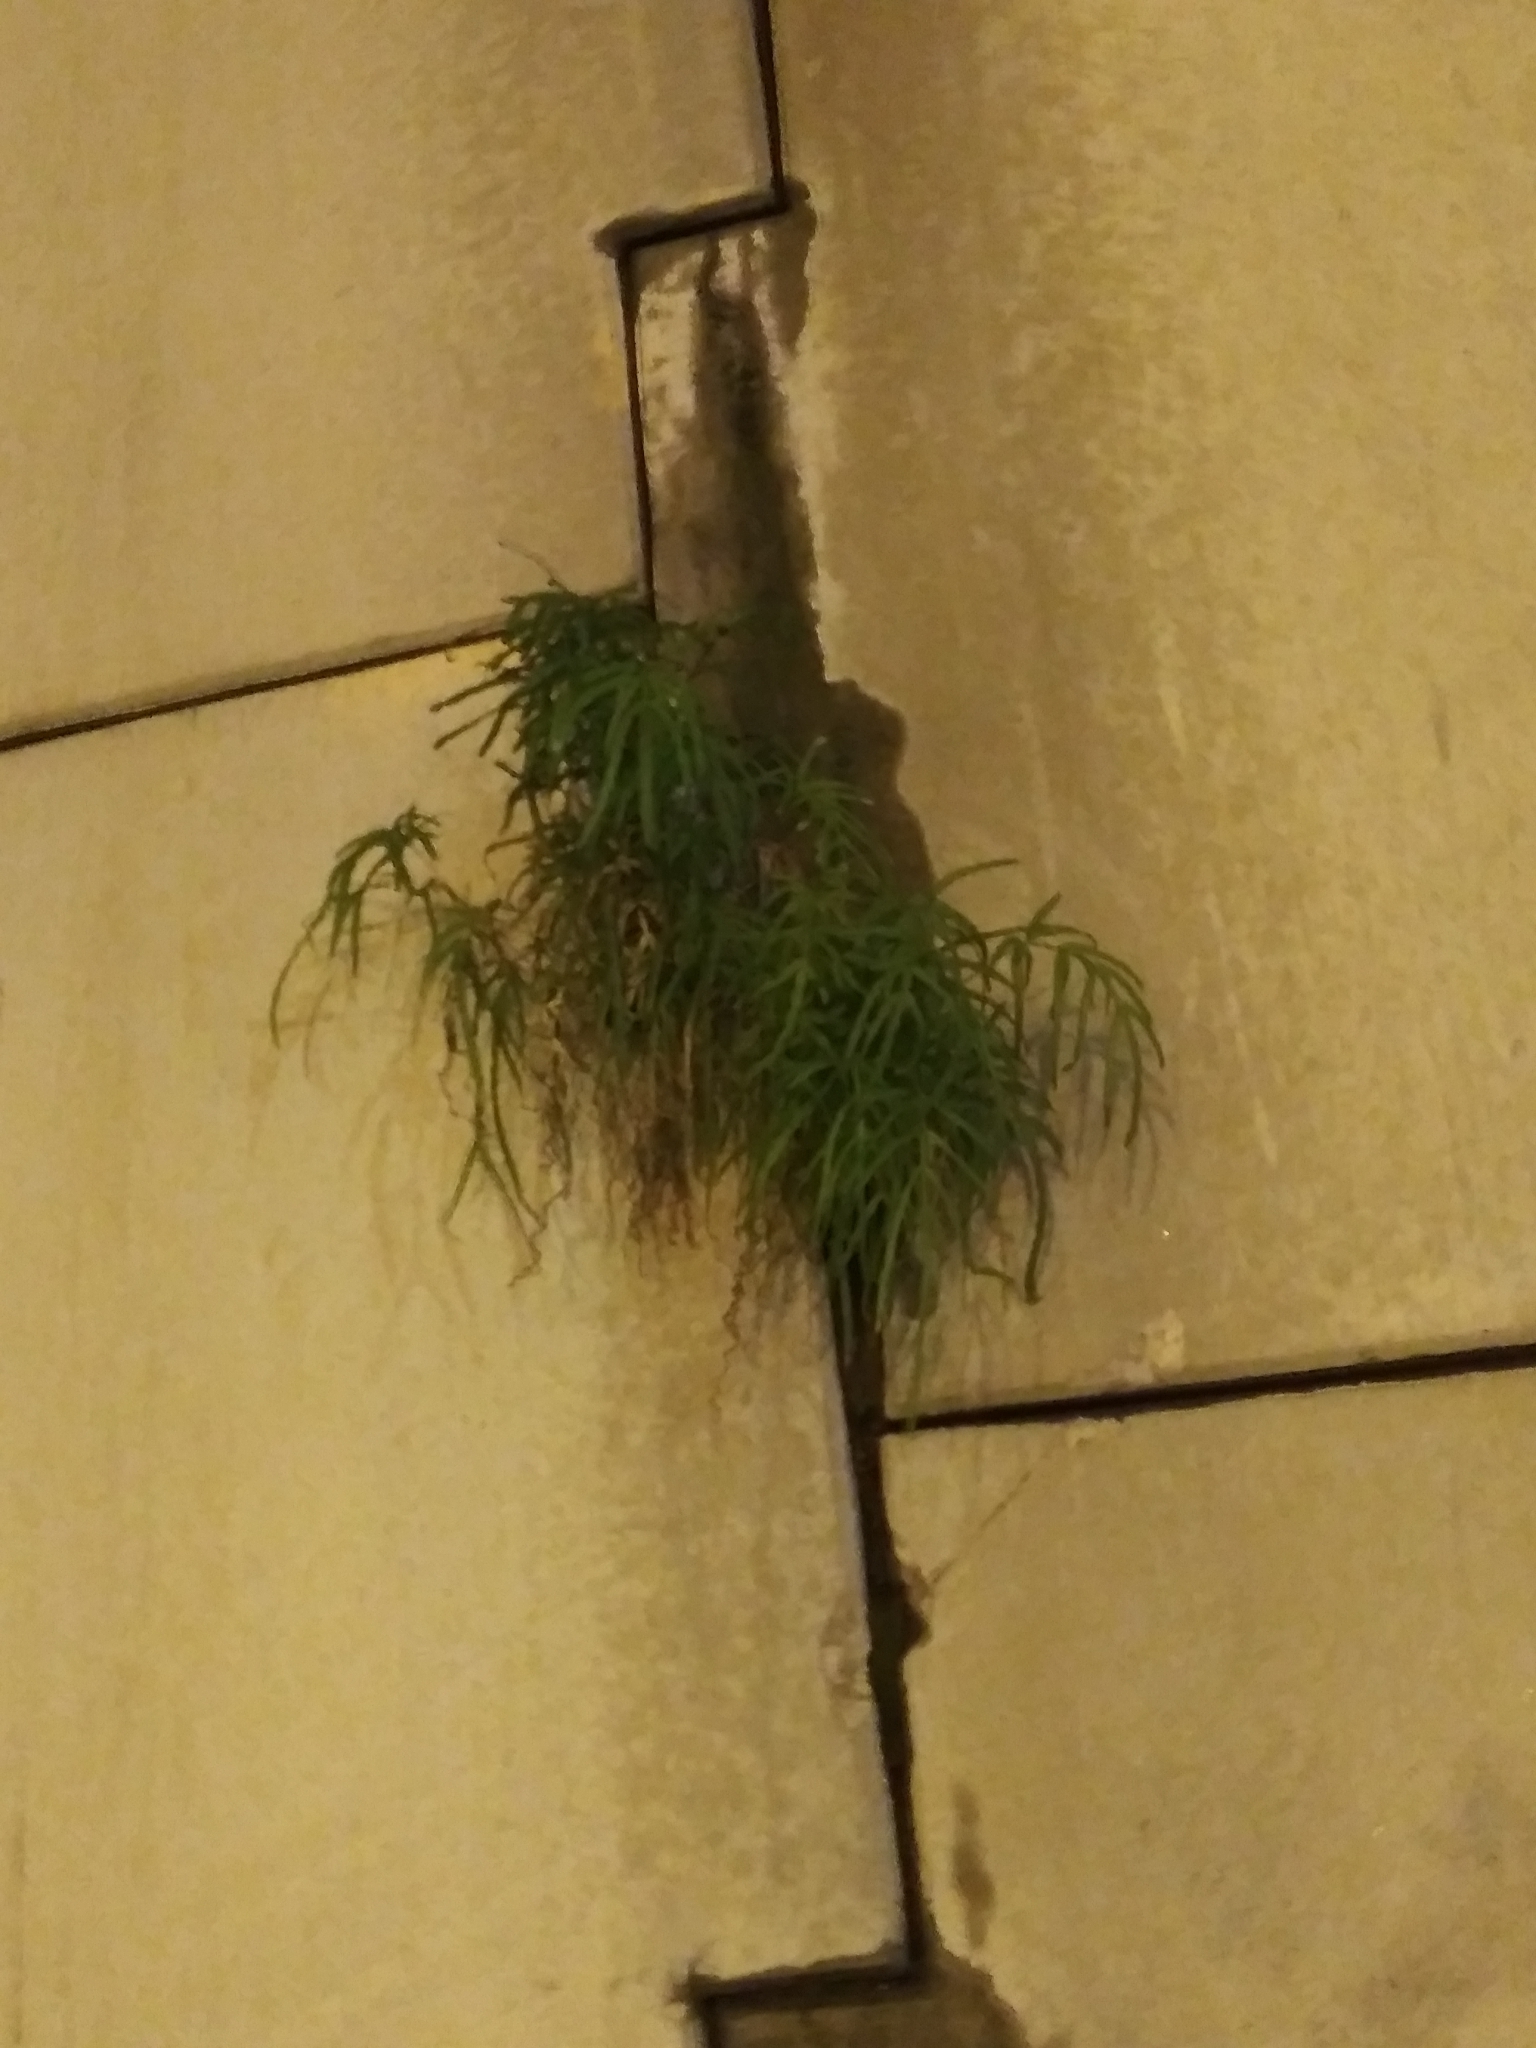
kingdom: Plantae
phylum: Tracheophyta
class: Polypodiopsida
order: Polypodiales
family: Pteridaceae
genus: Pteris
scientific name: Pteris multifida
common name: Spider brake
